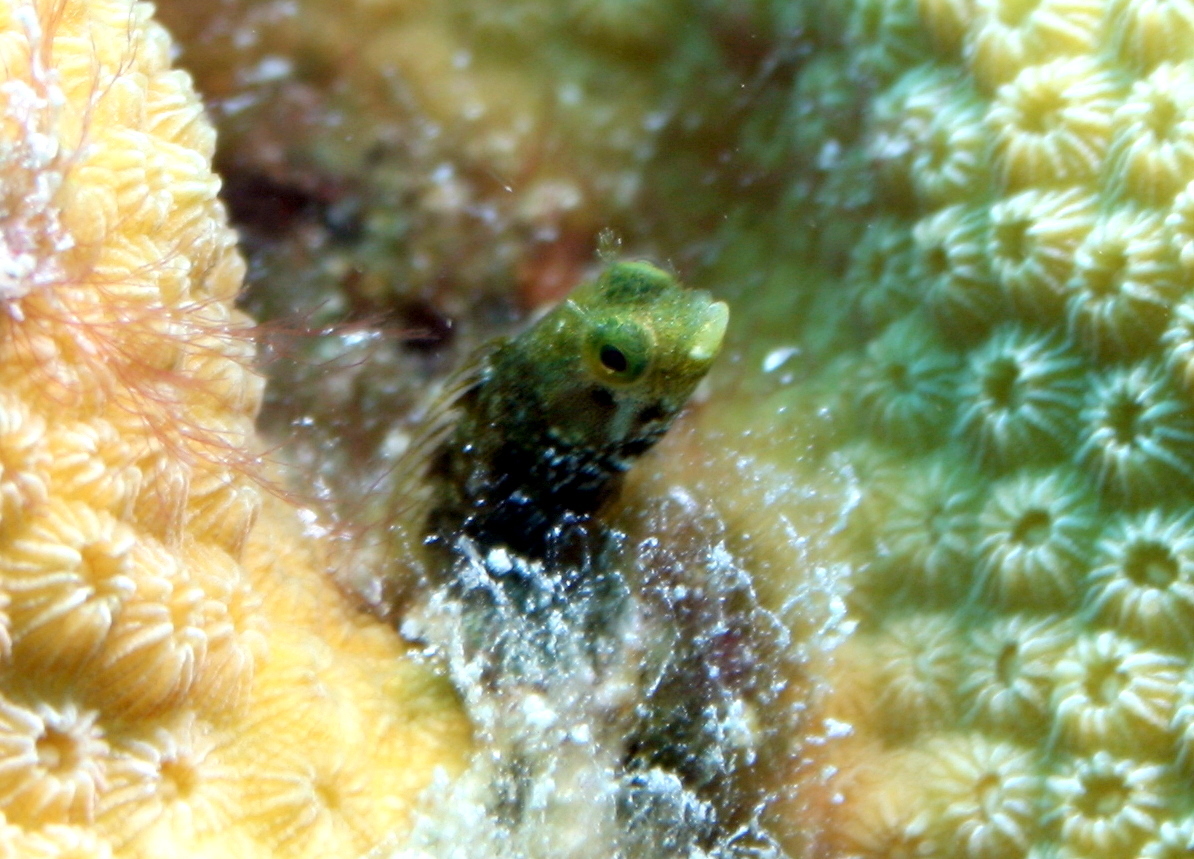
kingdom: Animalia
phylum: Chordata
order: Perciformes
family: Chaenopsidae
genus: Acanthemblemaria
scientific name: Acanthemblemaria spinosa
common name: Spinyhead blenny
